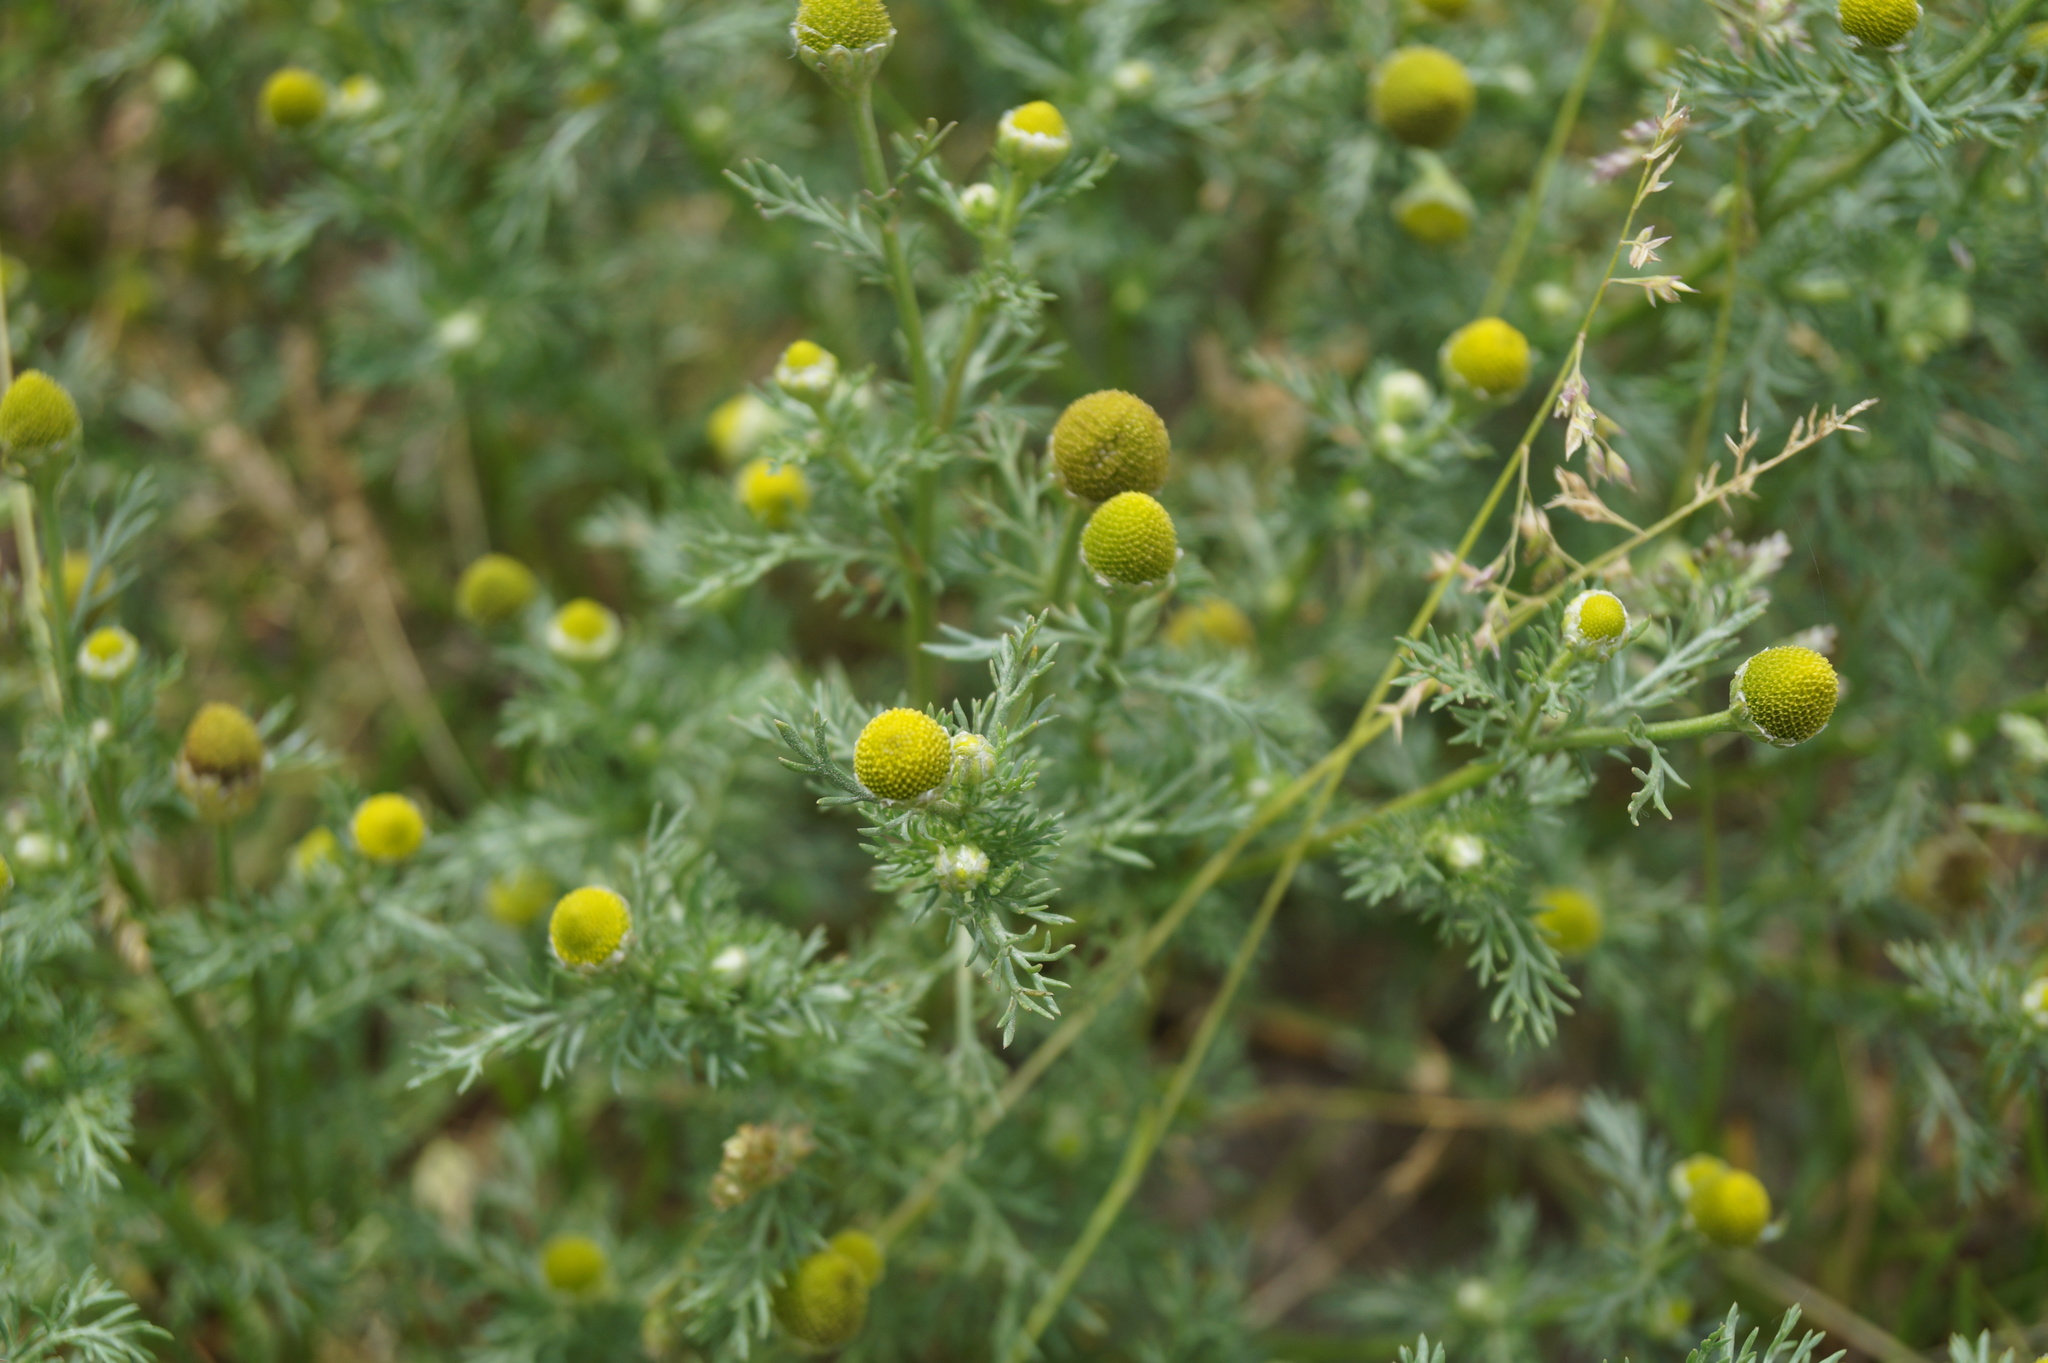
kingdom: Plantae
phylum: Tracheophyta
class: Magnoliopsida
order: Asterales
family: Asteraceae
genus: Matricaria
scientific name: Matricaria discoidea
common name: Disc mayweed
